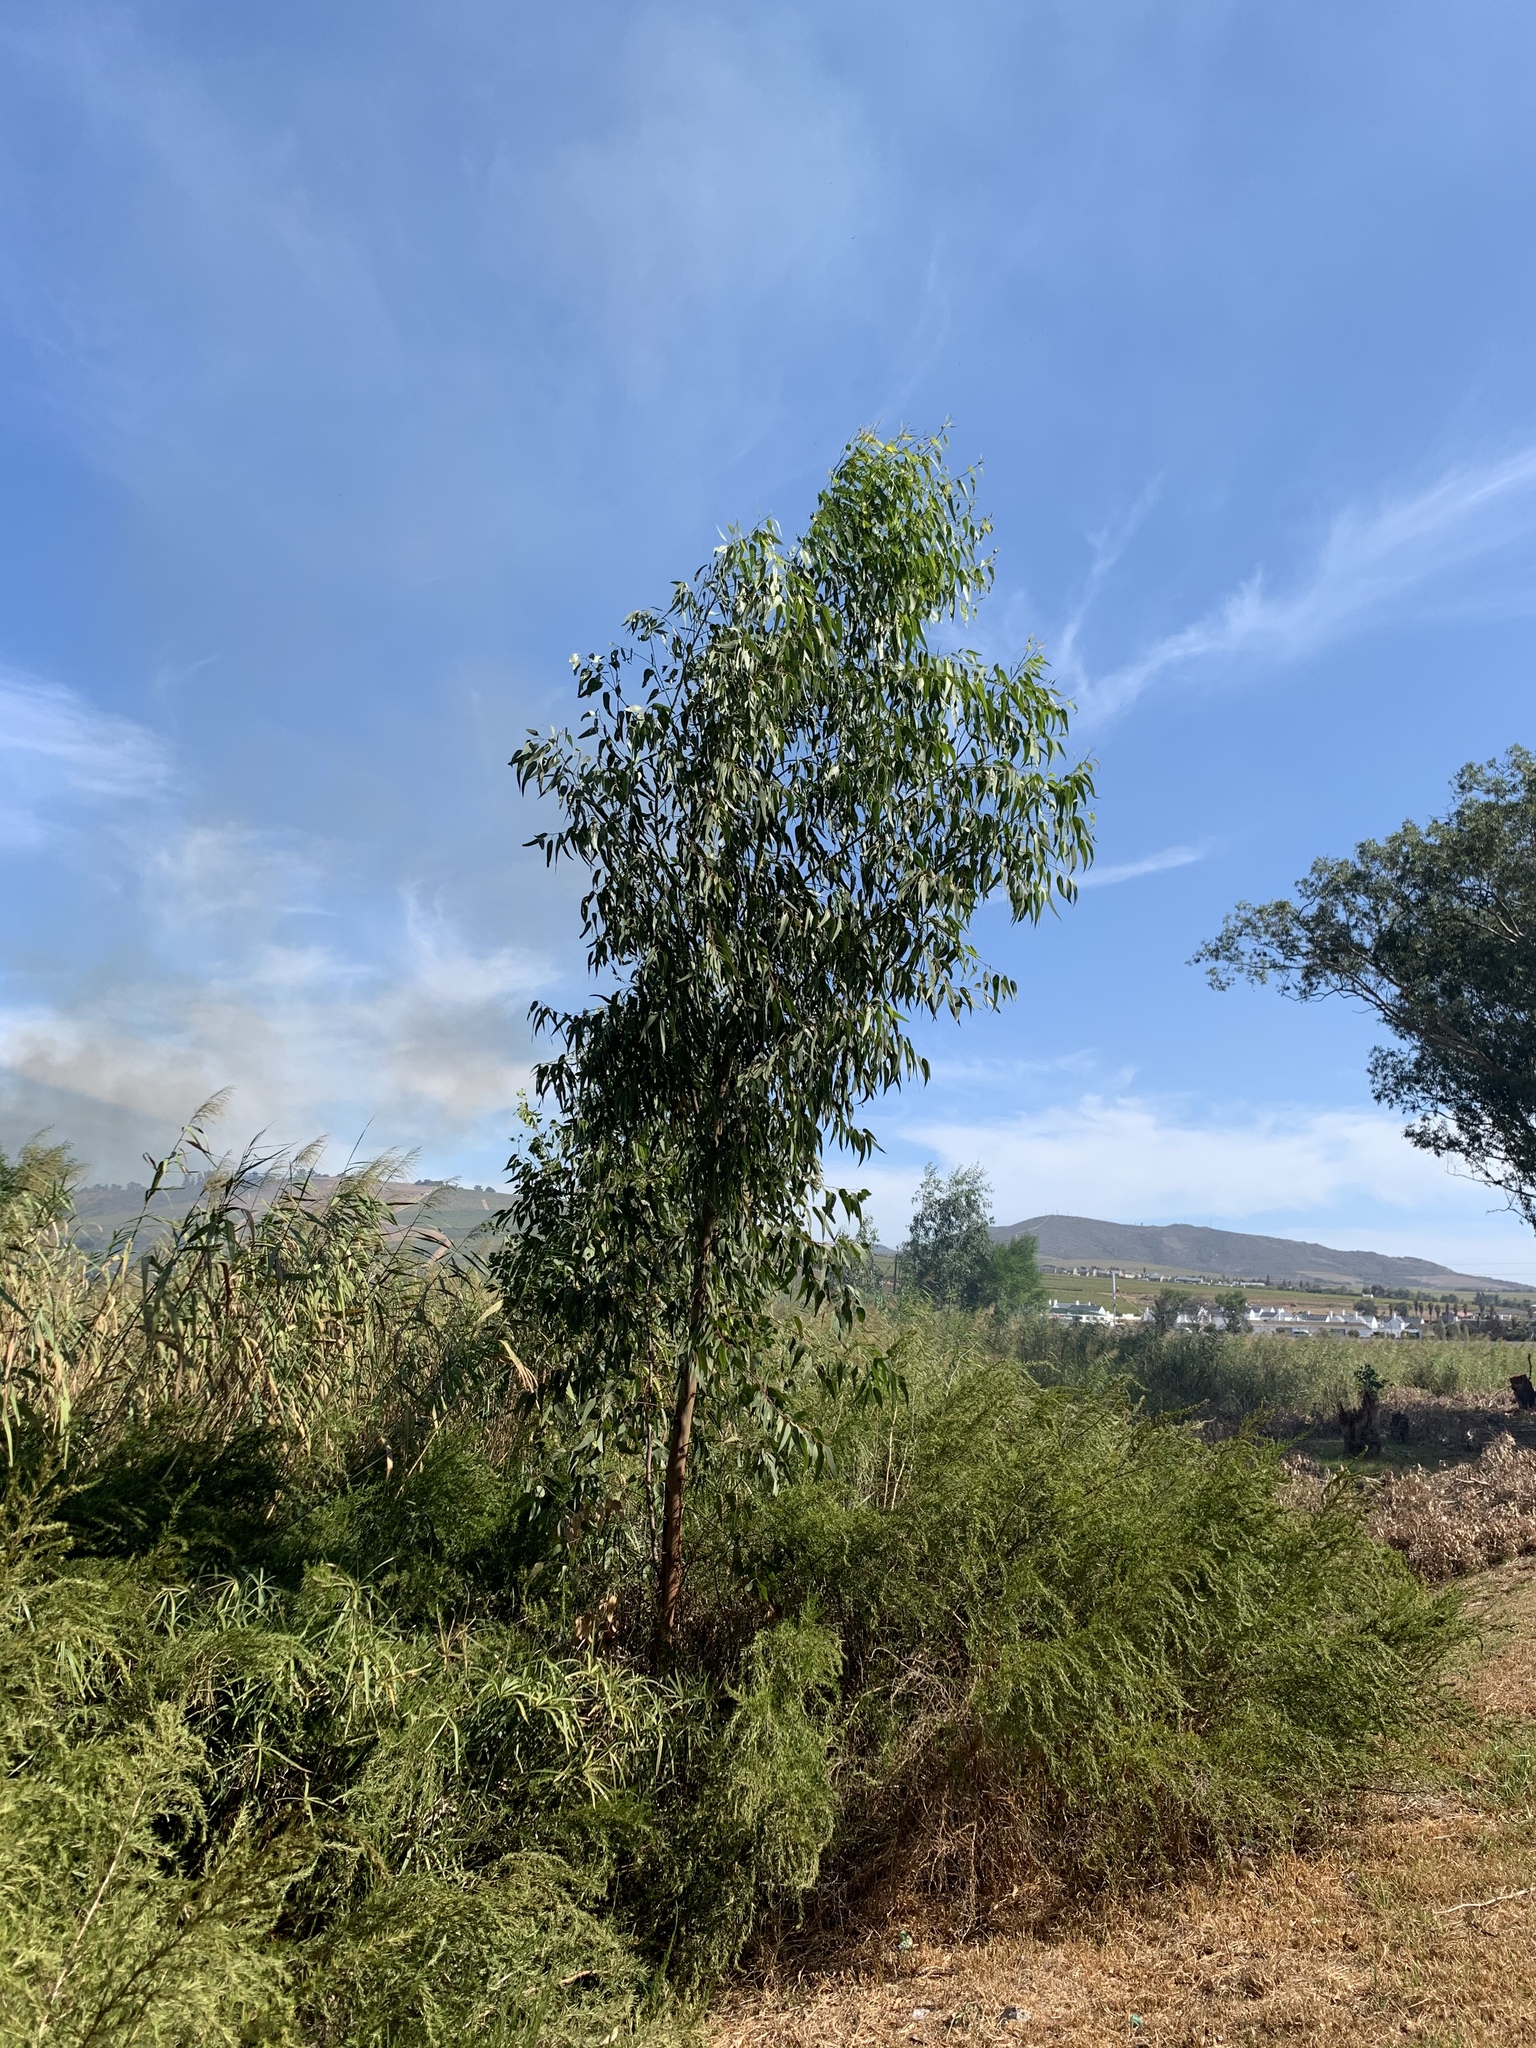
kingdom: Plantae
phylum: Tracheophyta
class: Magnoliopsida
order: Myrtales
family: Myrtaceae
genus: Eucalyptus
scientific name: Eucalyptus camaldulensis
